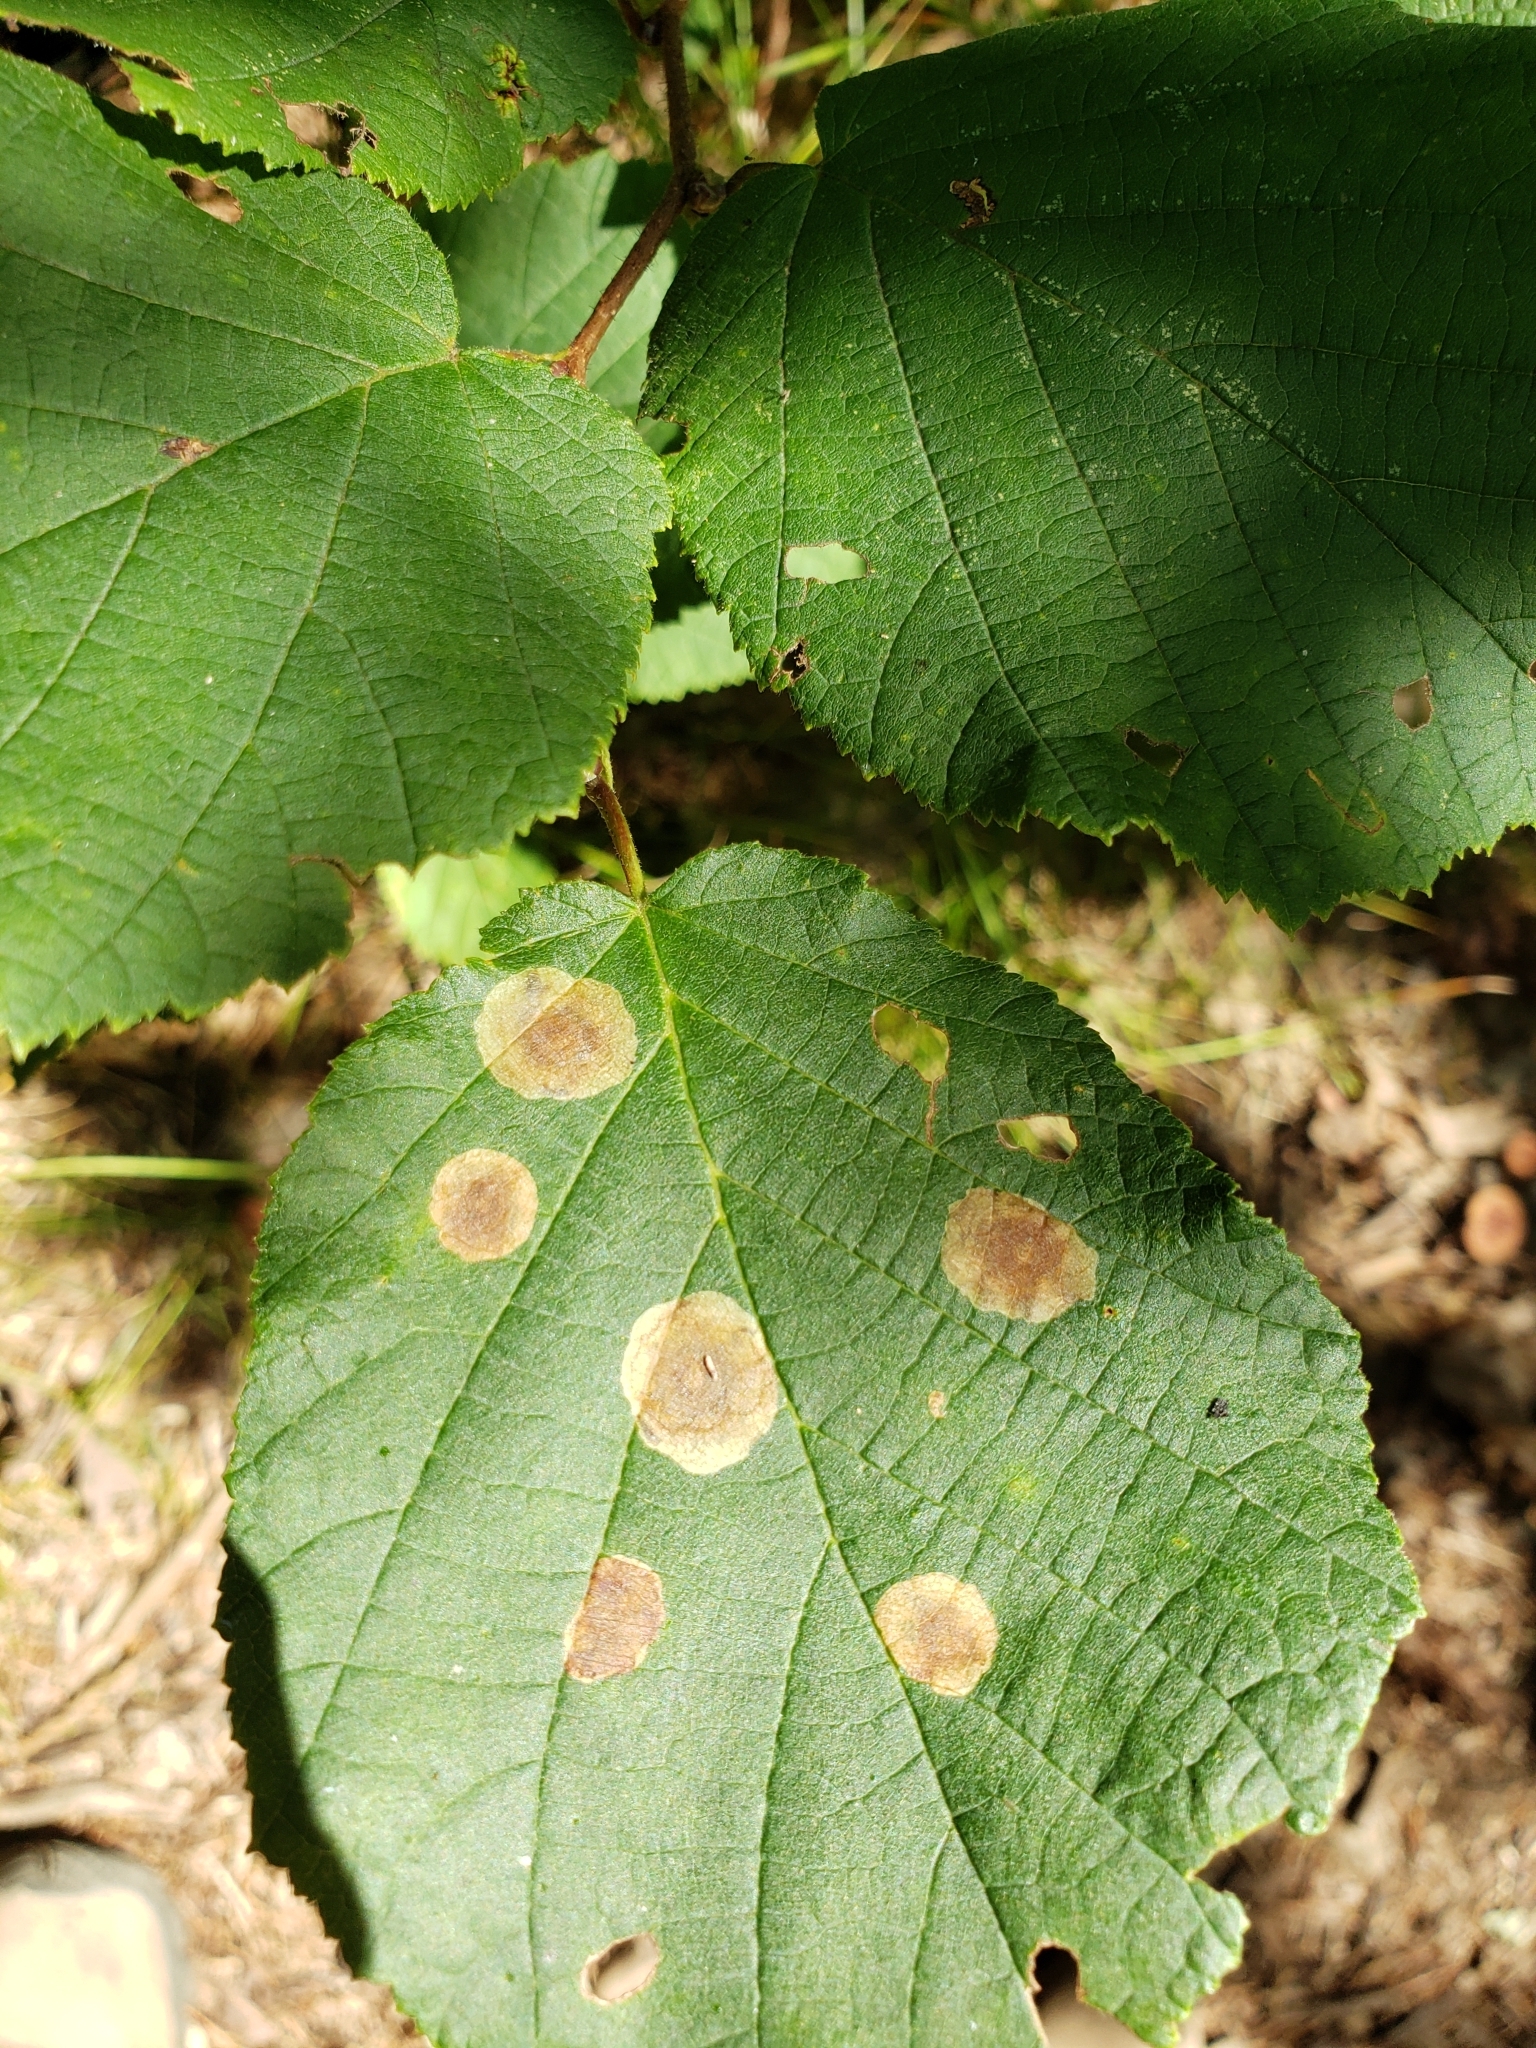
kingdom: Animalia
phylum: Arthropoda
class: Insecta
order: Lepidoptera
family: Gracillariidae
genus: Cameraria
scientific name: Cameraria corylisella
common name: Hazel blotchminer
